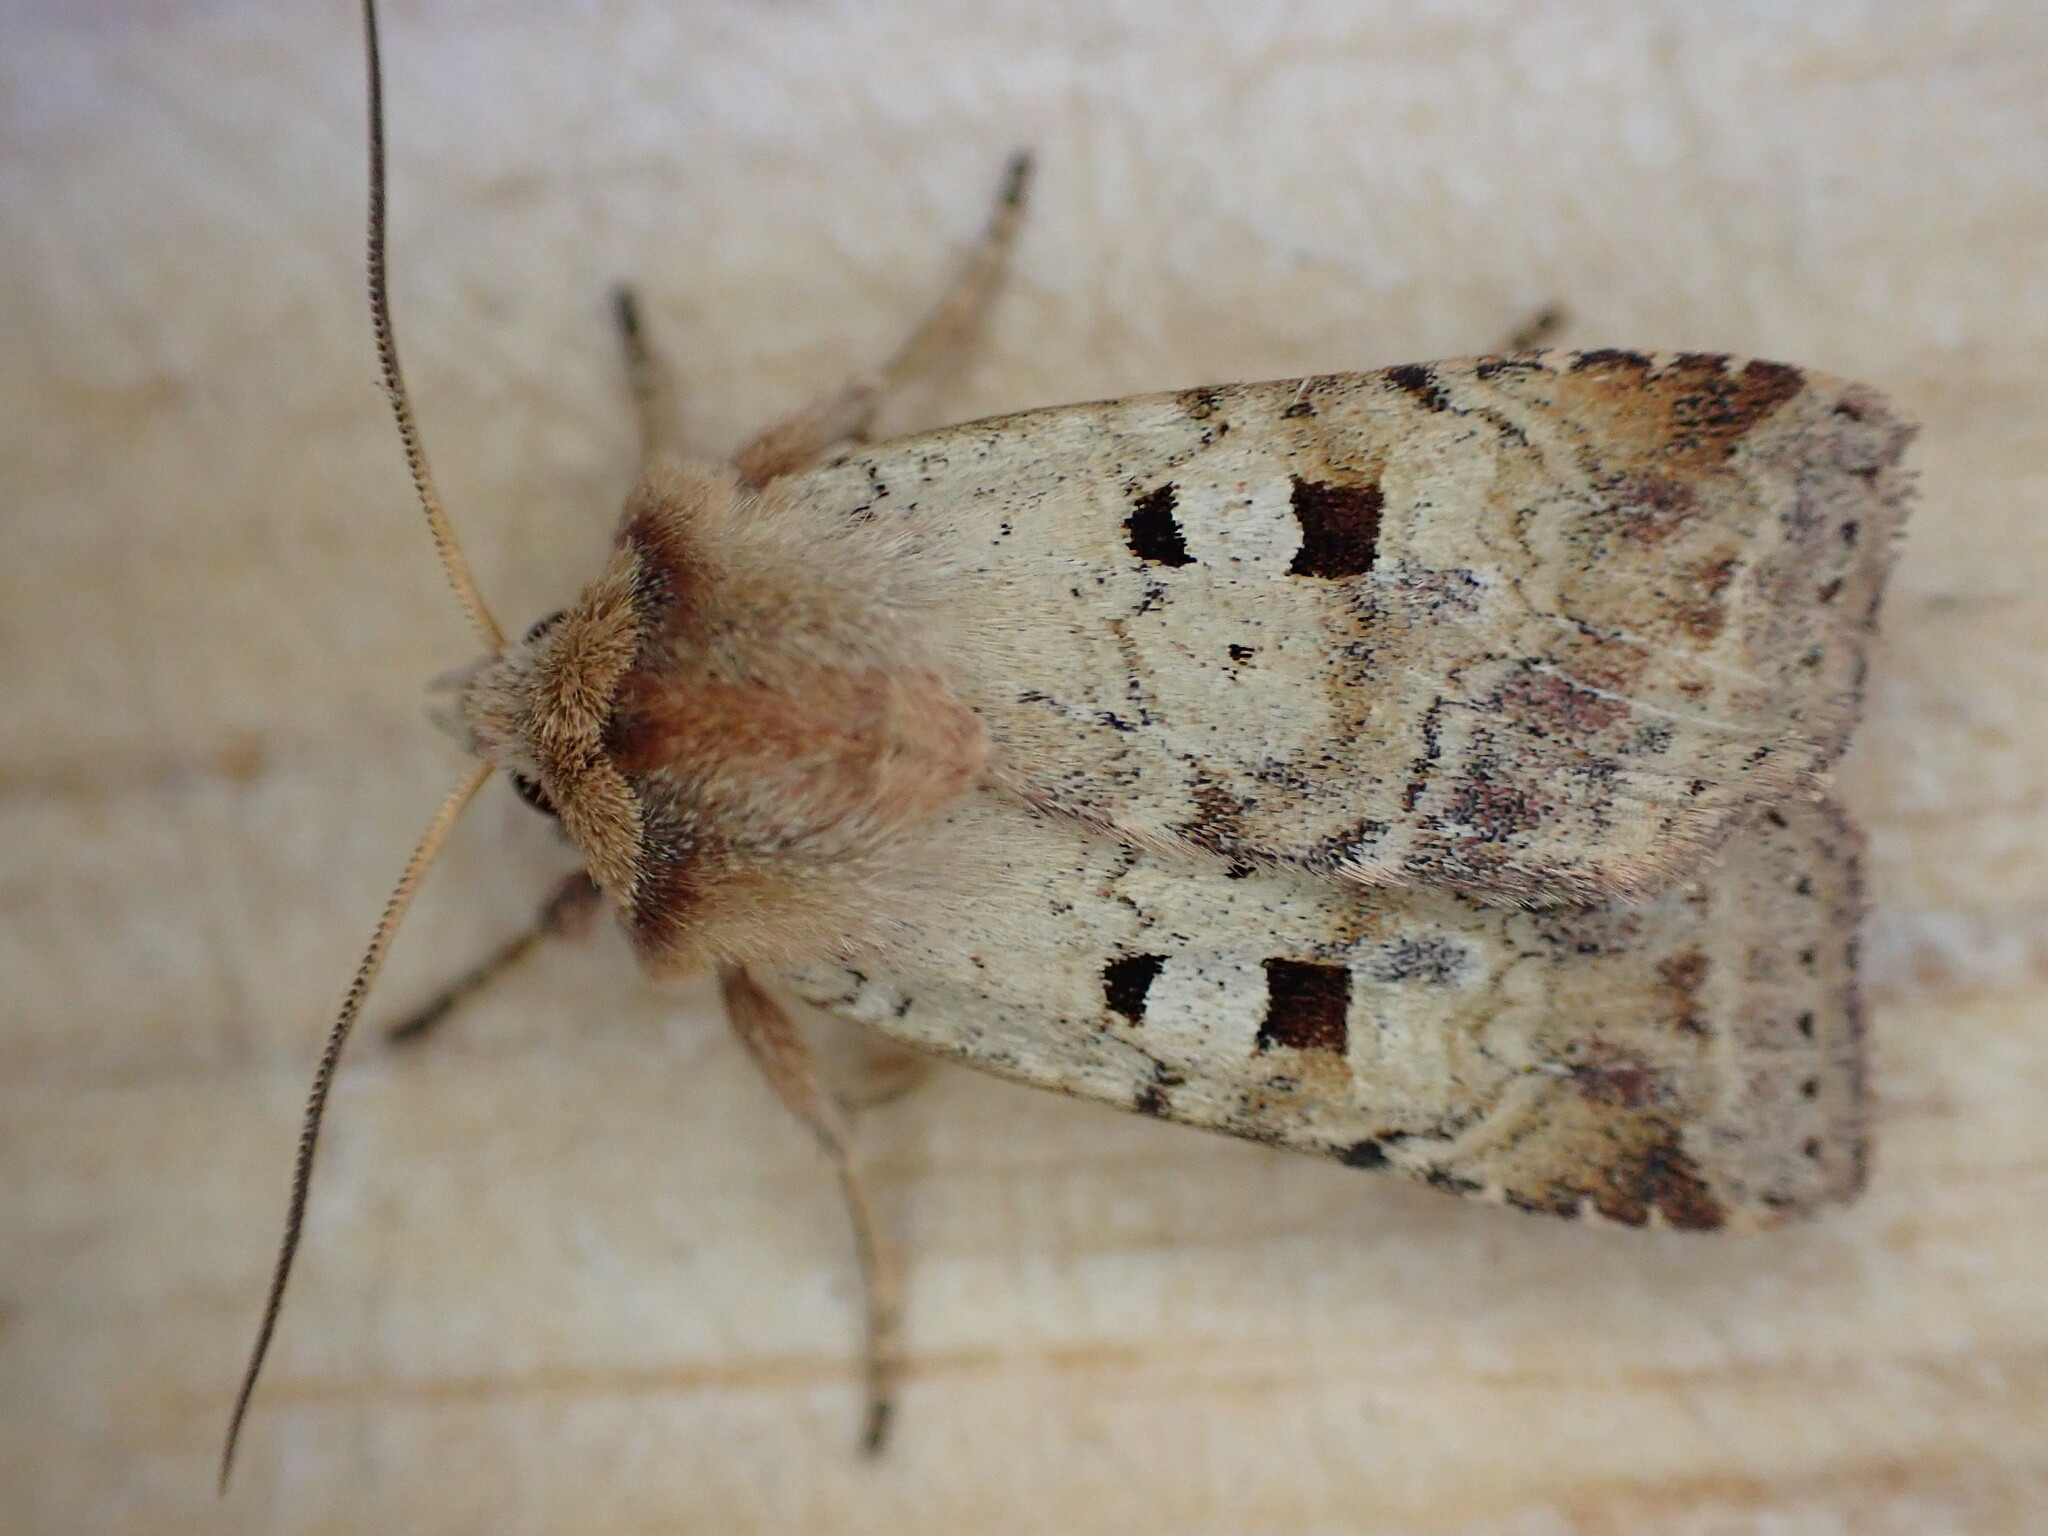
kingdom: Animalia
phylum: Arthropoda
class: Insecta
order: Lepidoptera
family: Noctuidae
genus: Diarsia
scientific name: Diarsia mendica
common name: Ingrailed clay
